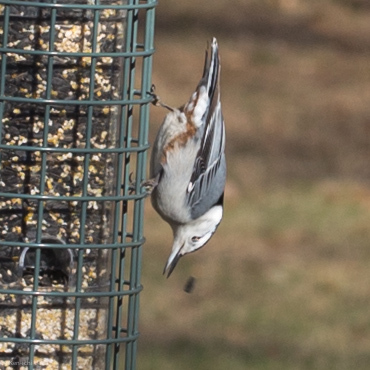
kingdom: Animalia
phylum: Chordata
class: Aves
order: Passeriformes
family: Sittidae
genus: Sitta
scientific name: Sitta carolinensis
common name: White-breasted nuthatch
